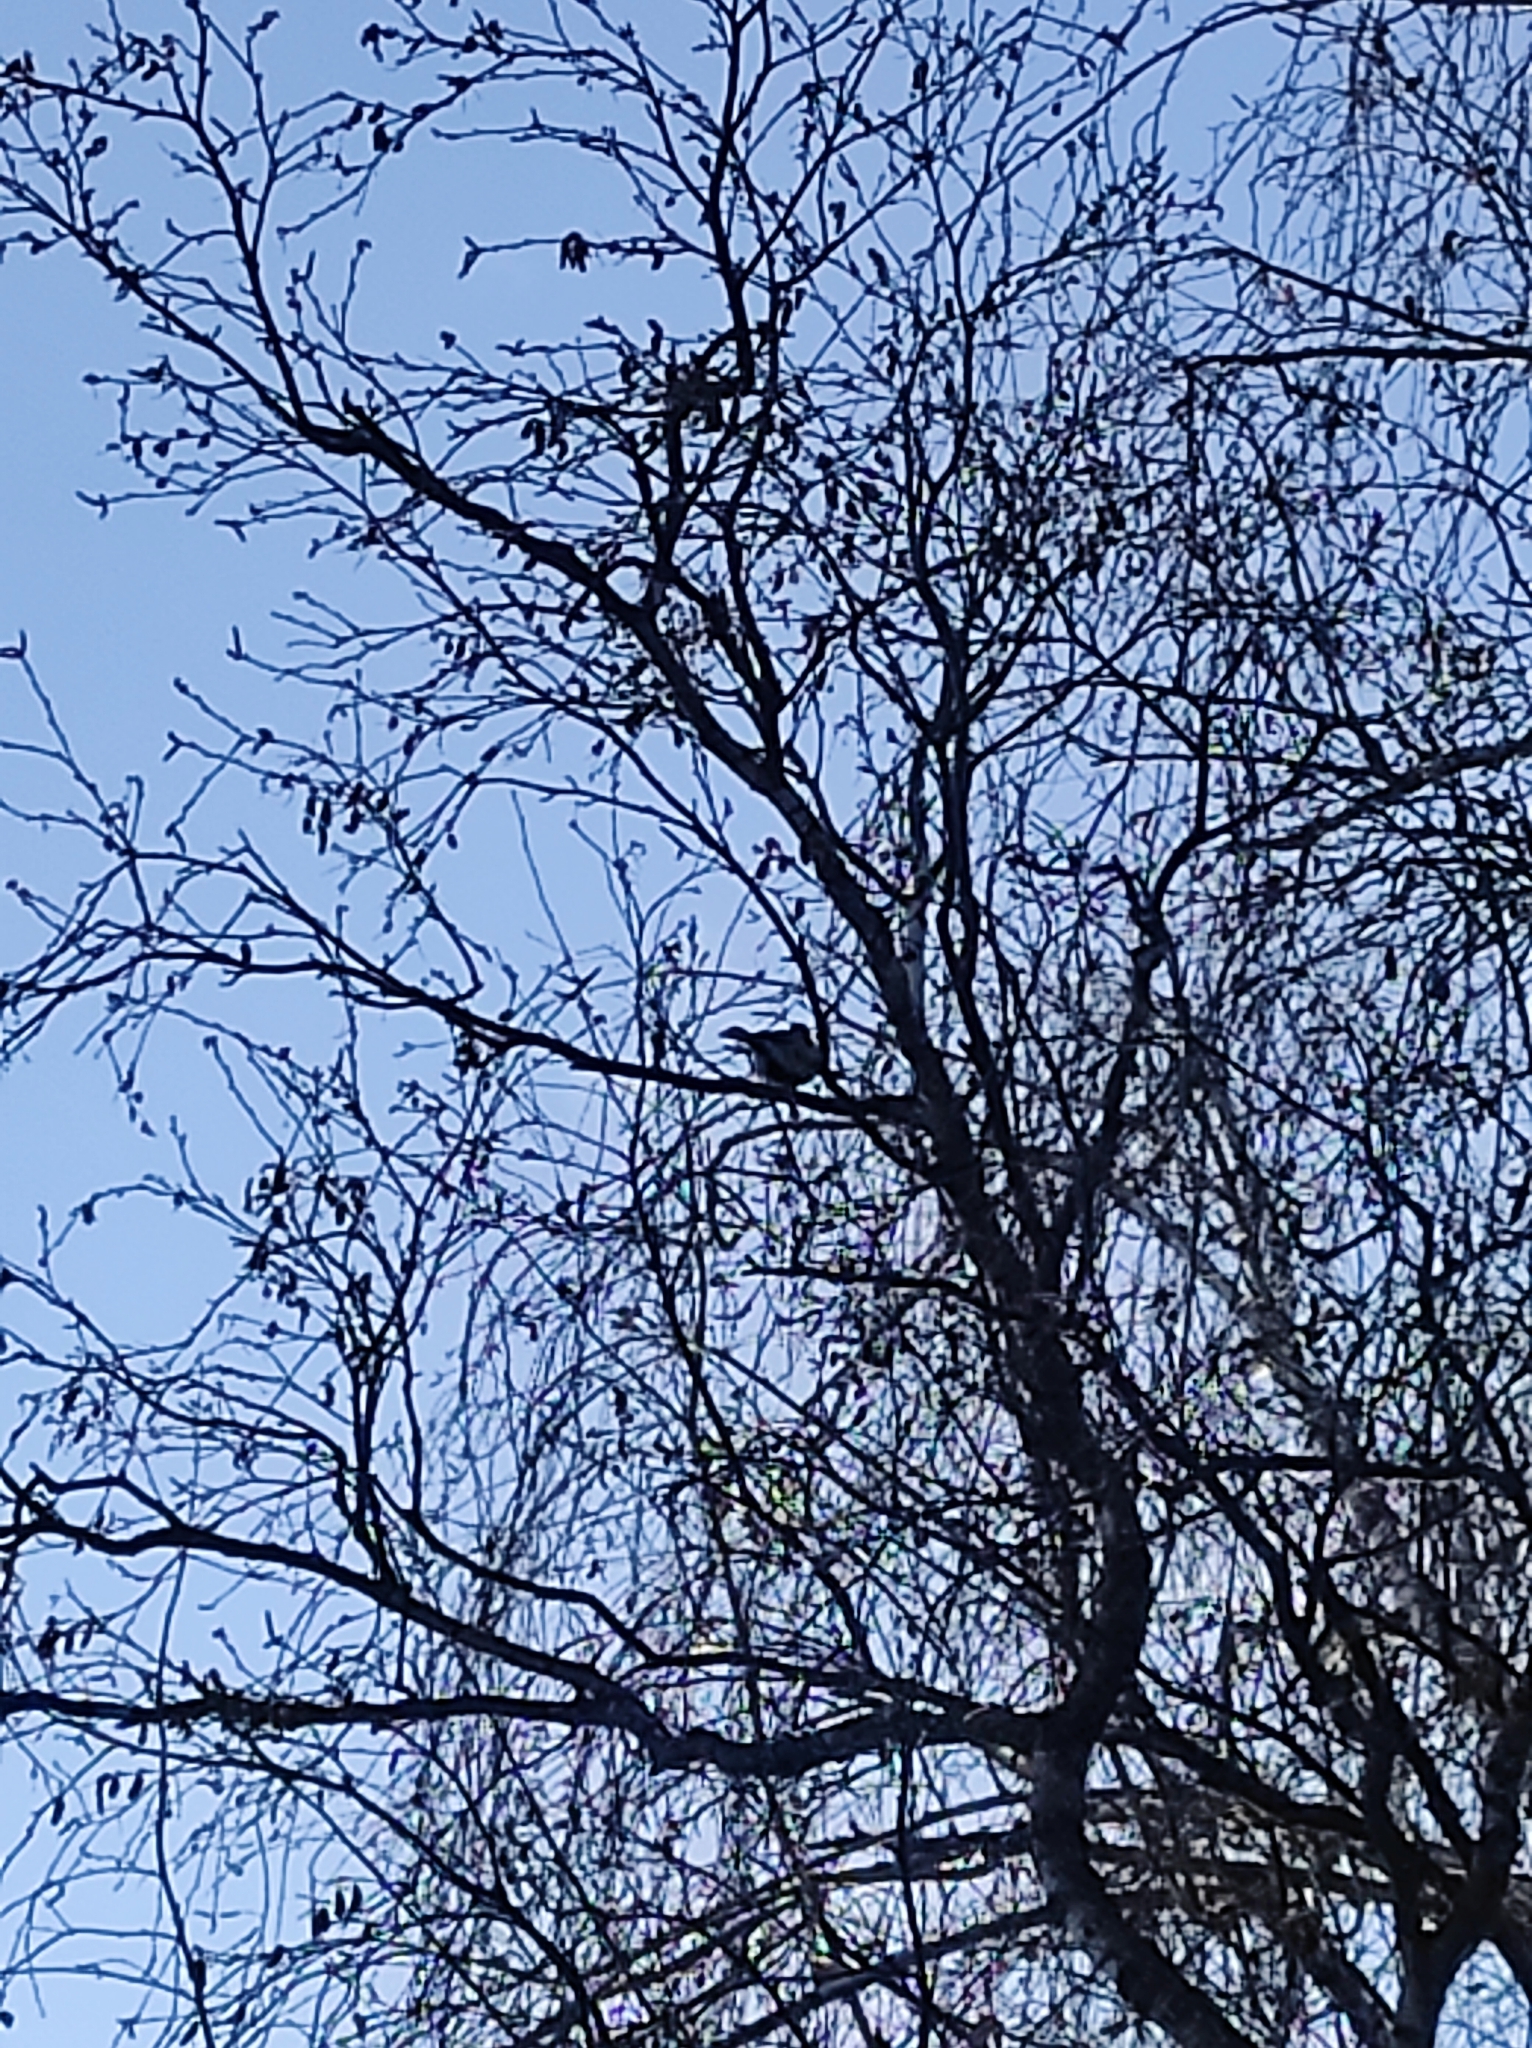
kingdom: Animalia
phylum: Chordata
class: Aves
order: Passeriformes
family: Paridae
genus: Parus
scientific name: Parus major
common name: Great tit
